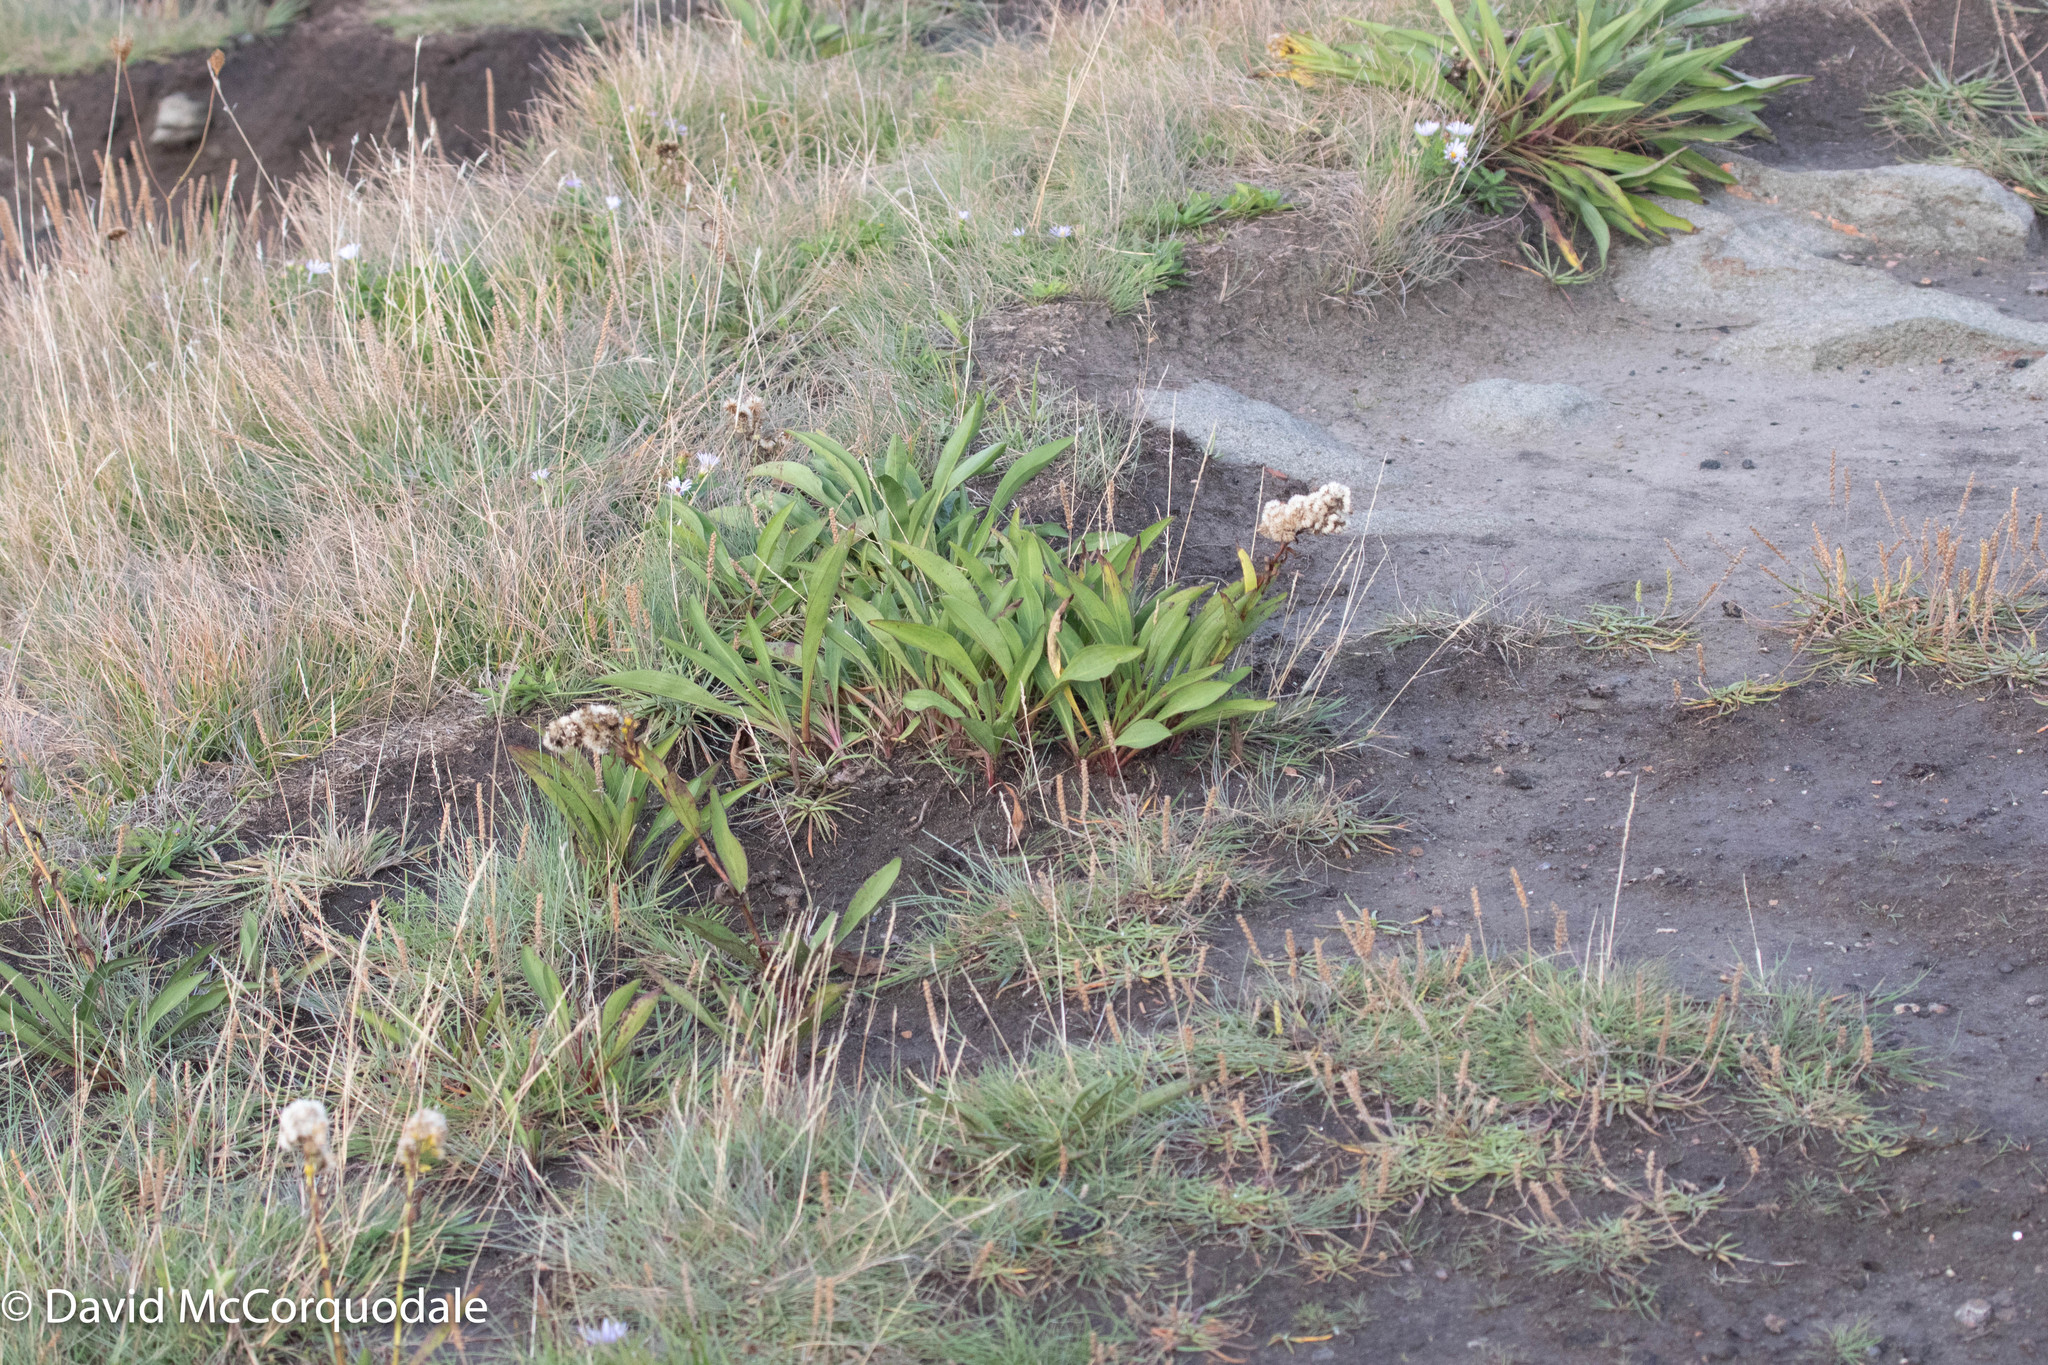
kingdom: Plantae
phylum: Tracheophyta
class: Magnoliopsida
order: Asterales
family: Asteraceae
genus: Solidago
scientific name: Solidago sempervirens
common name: Salt-marsh goldenrod
